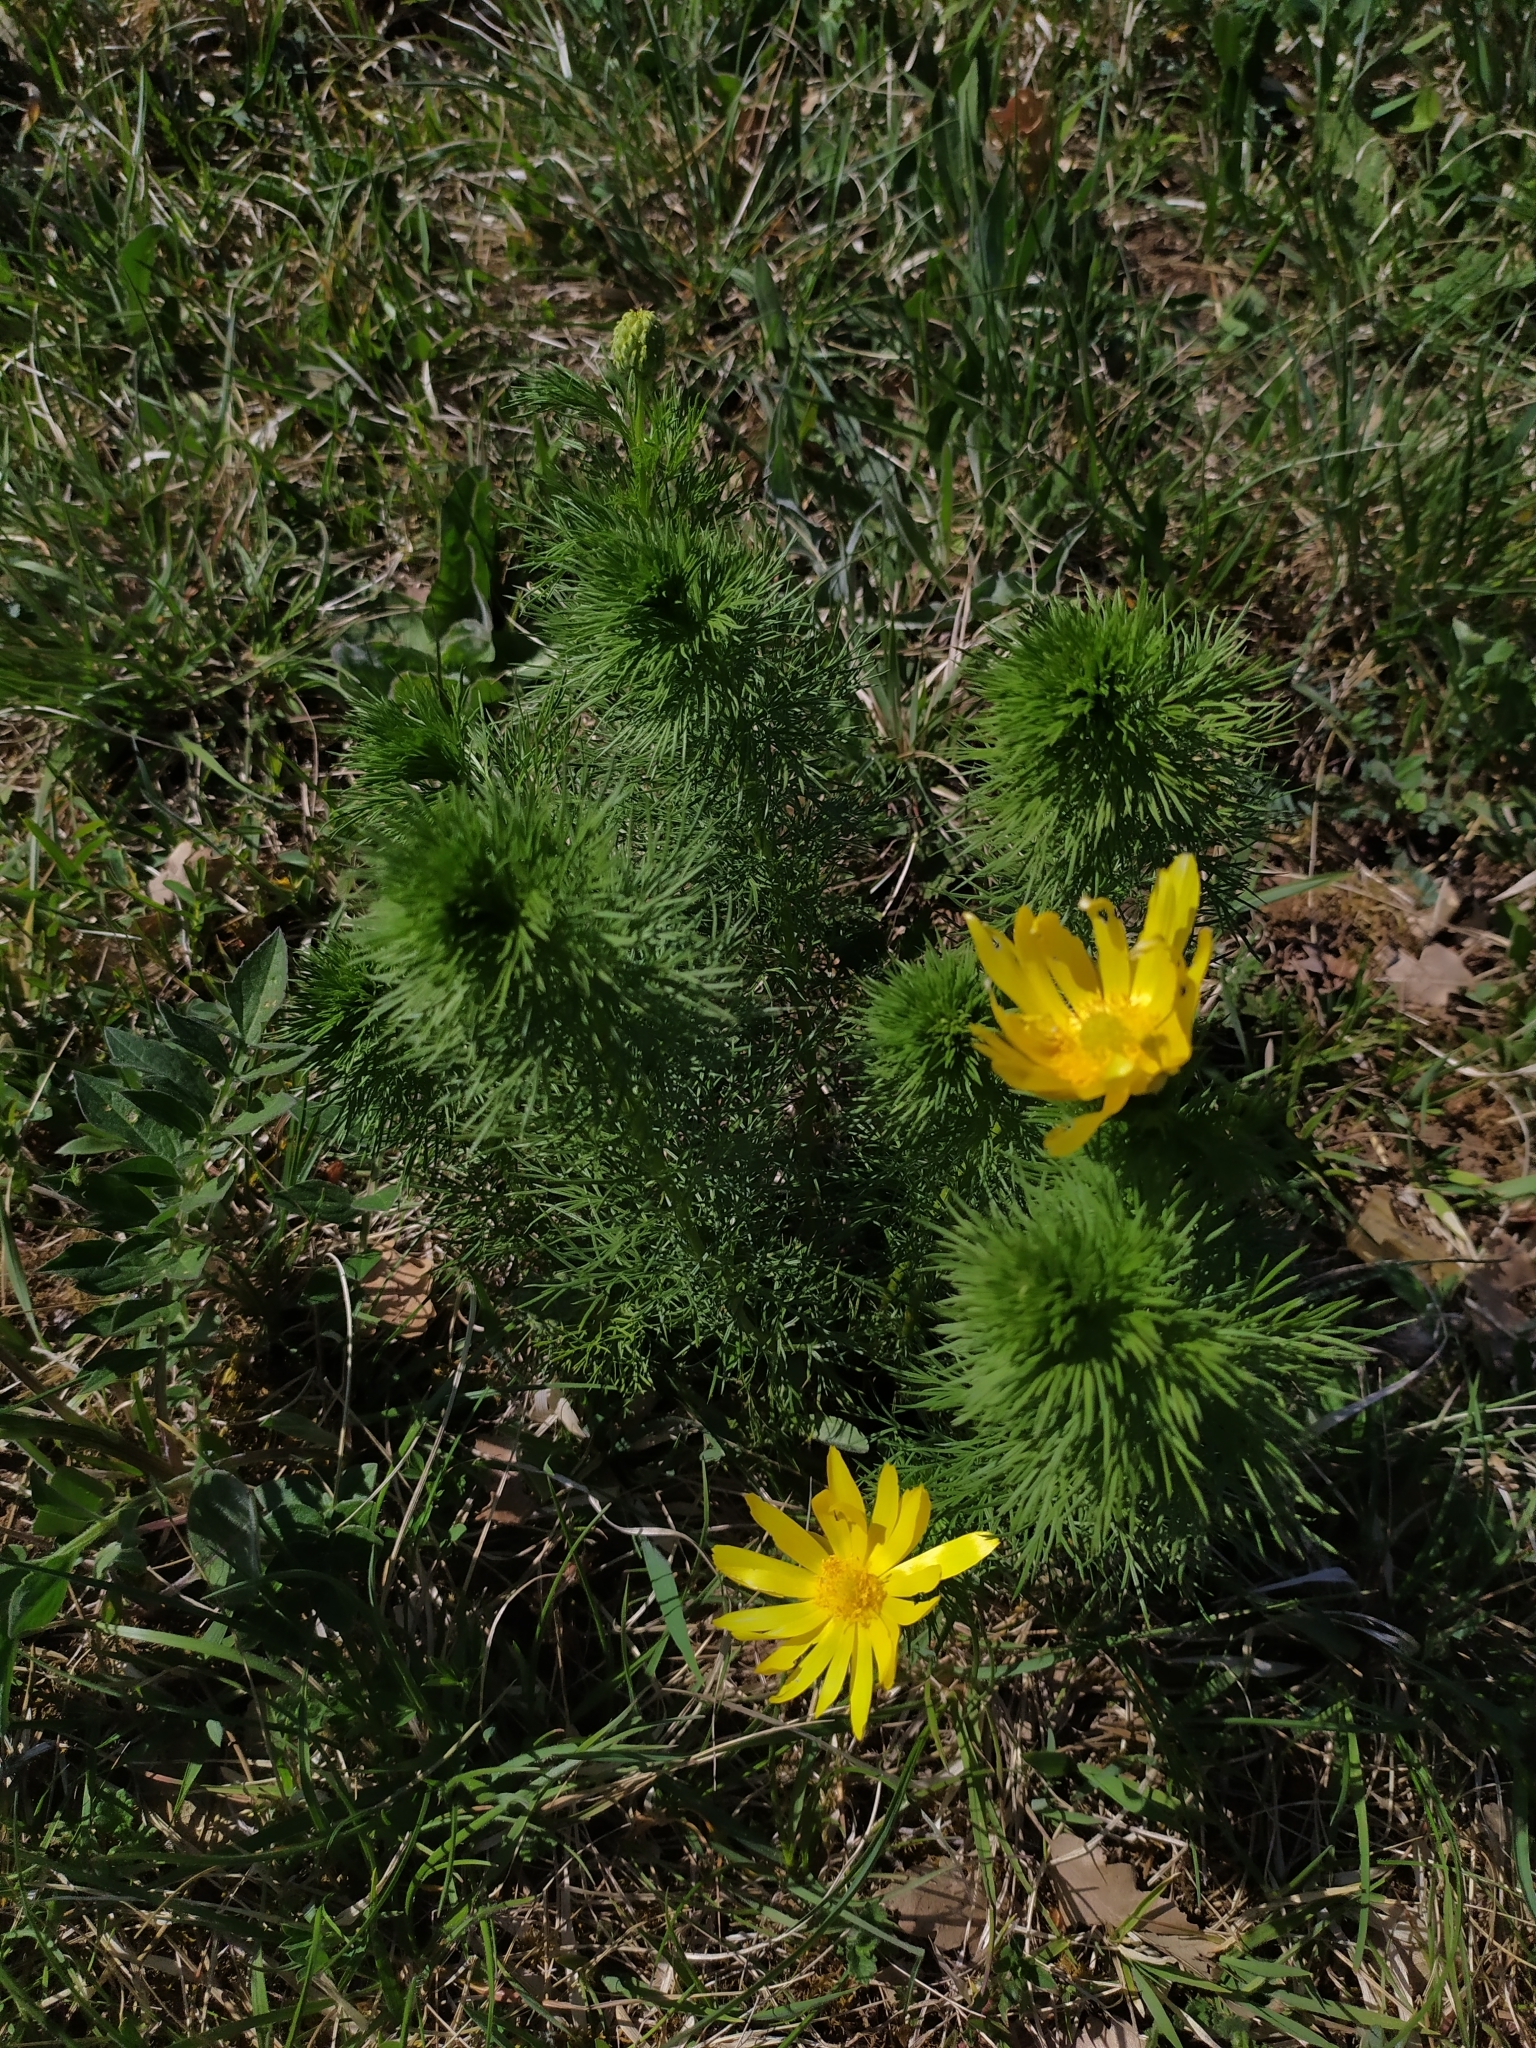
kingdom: Plantae
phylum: Tracheophyta
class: Magnoliopsida
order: Ranunculales
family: Ranunculaceae
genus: Adonis
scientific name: Adonis vernalis
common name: Yellow pheasants-eye
